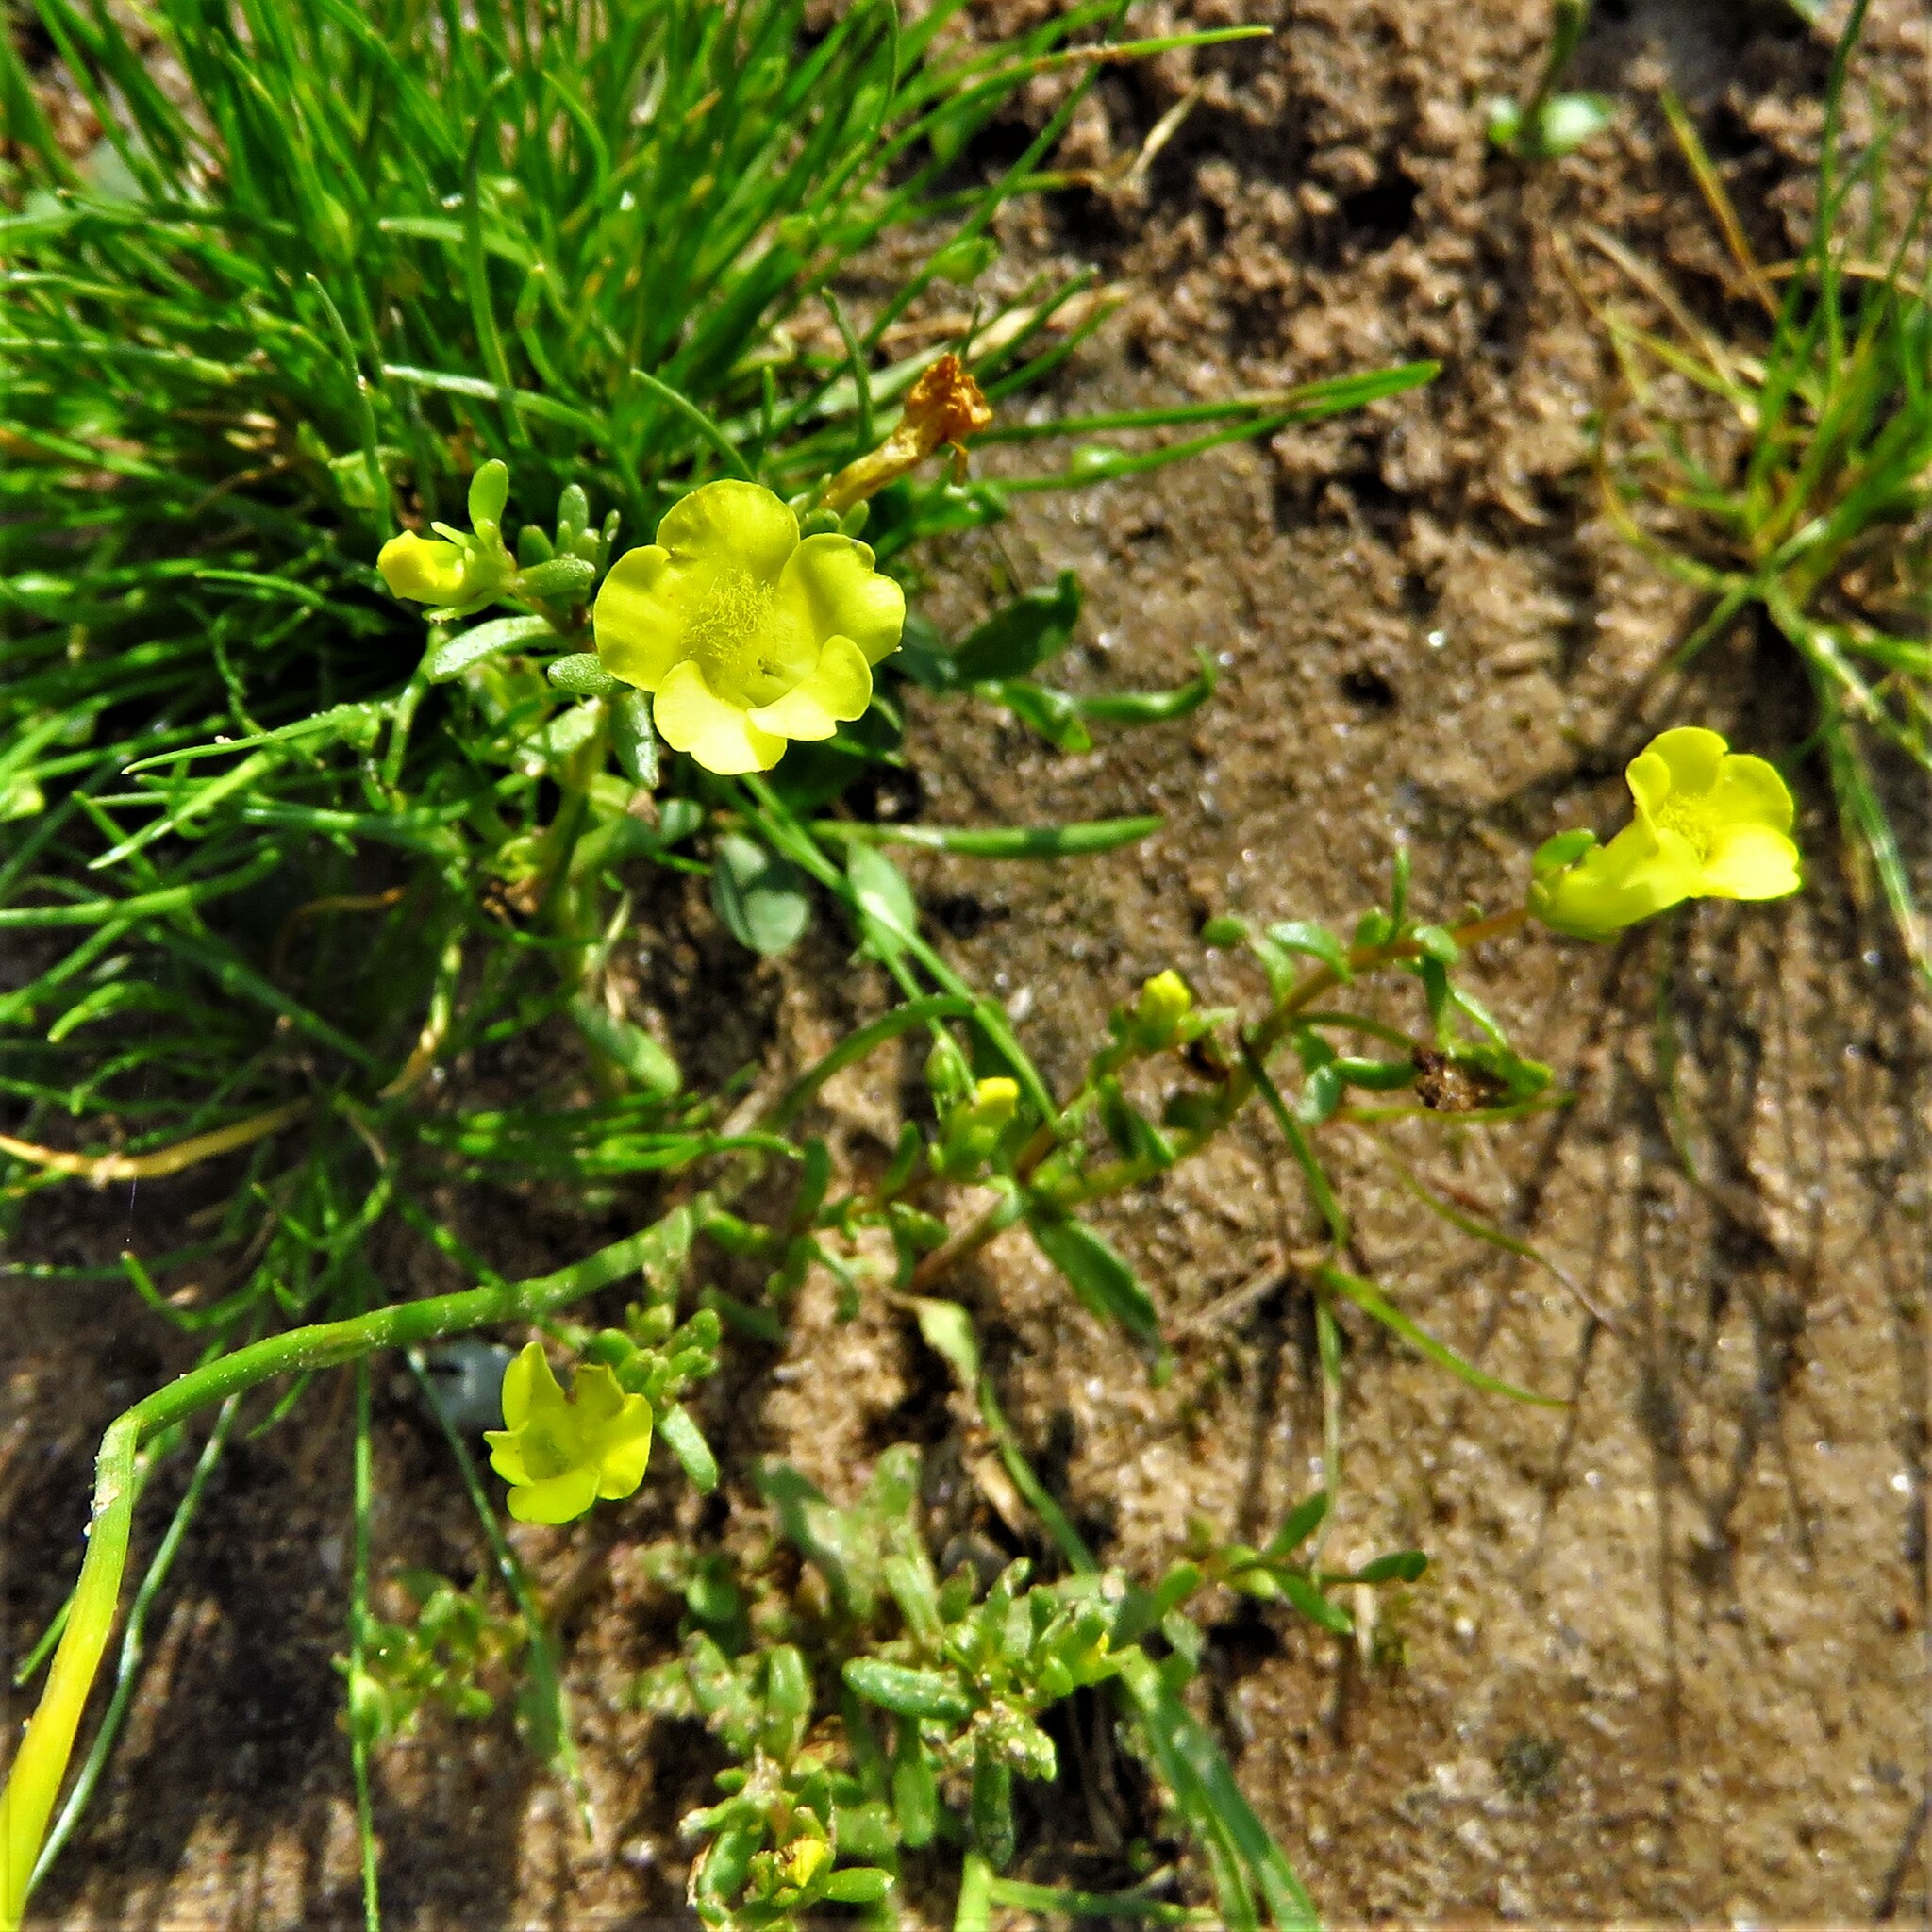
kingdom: Plantae
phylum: Tracheophyta
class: Magnoliopsida
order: Lamiales
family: Plantaginaceae
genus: Gratiola
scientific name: Gratiola flava
